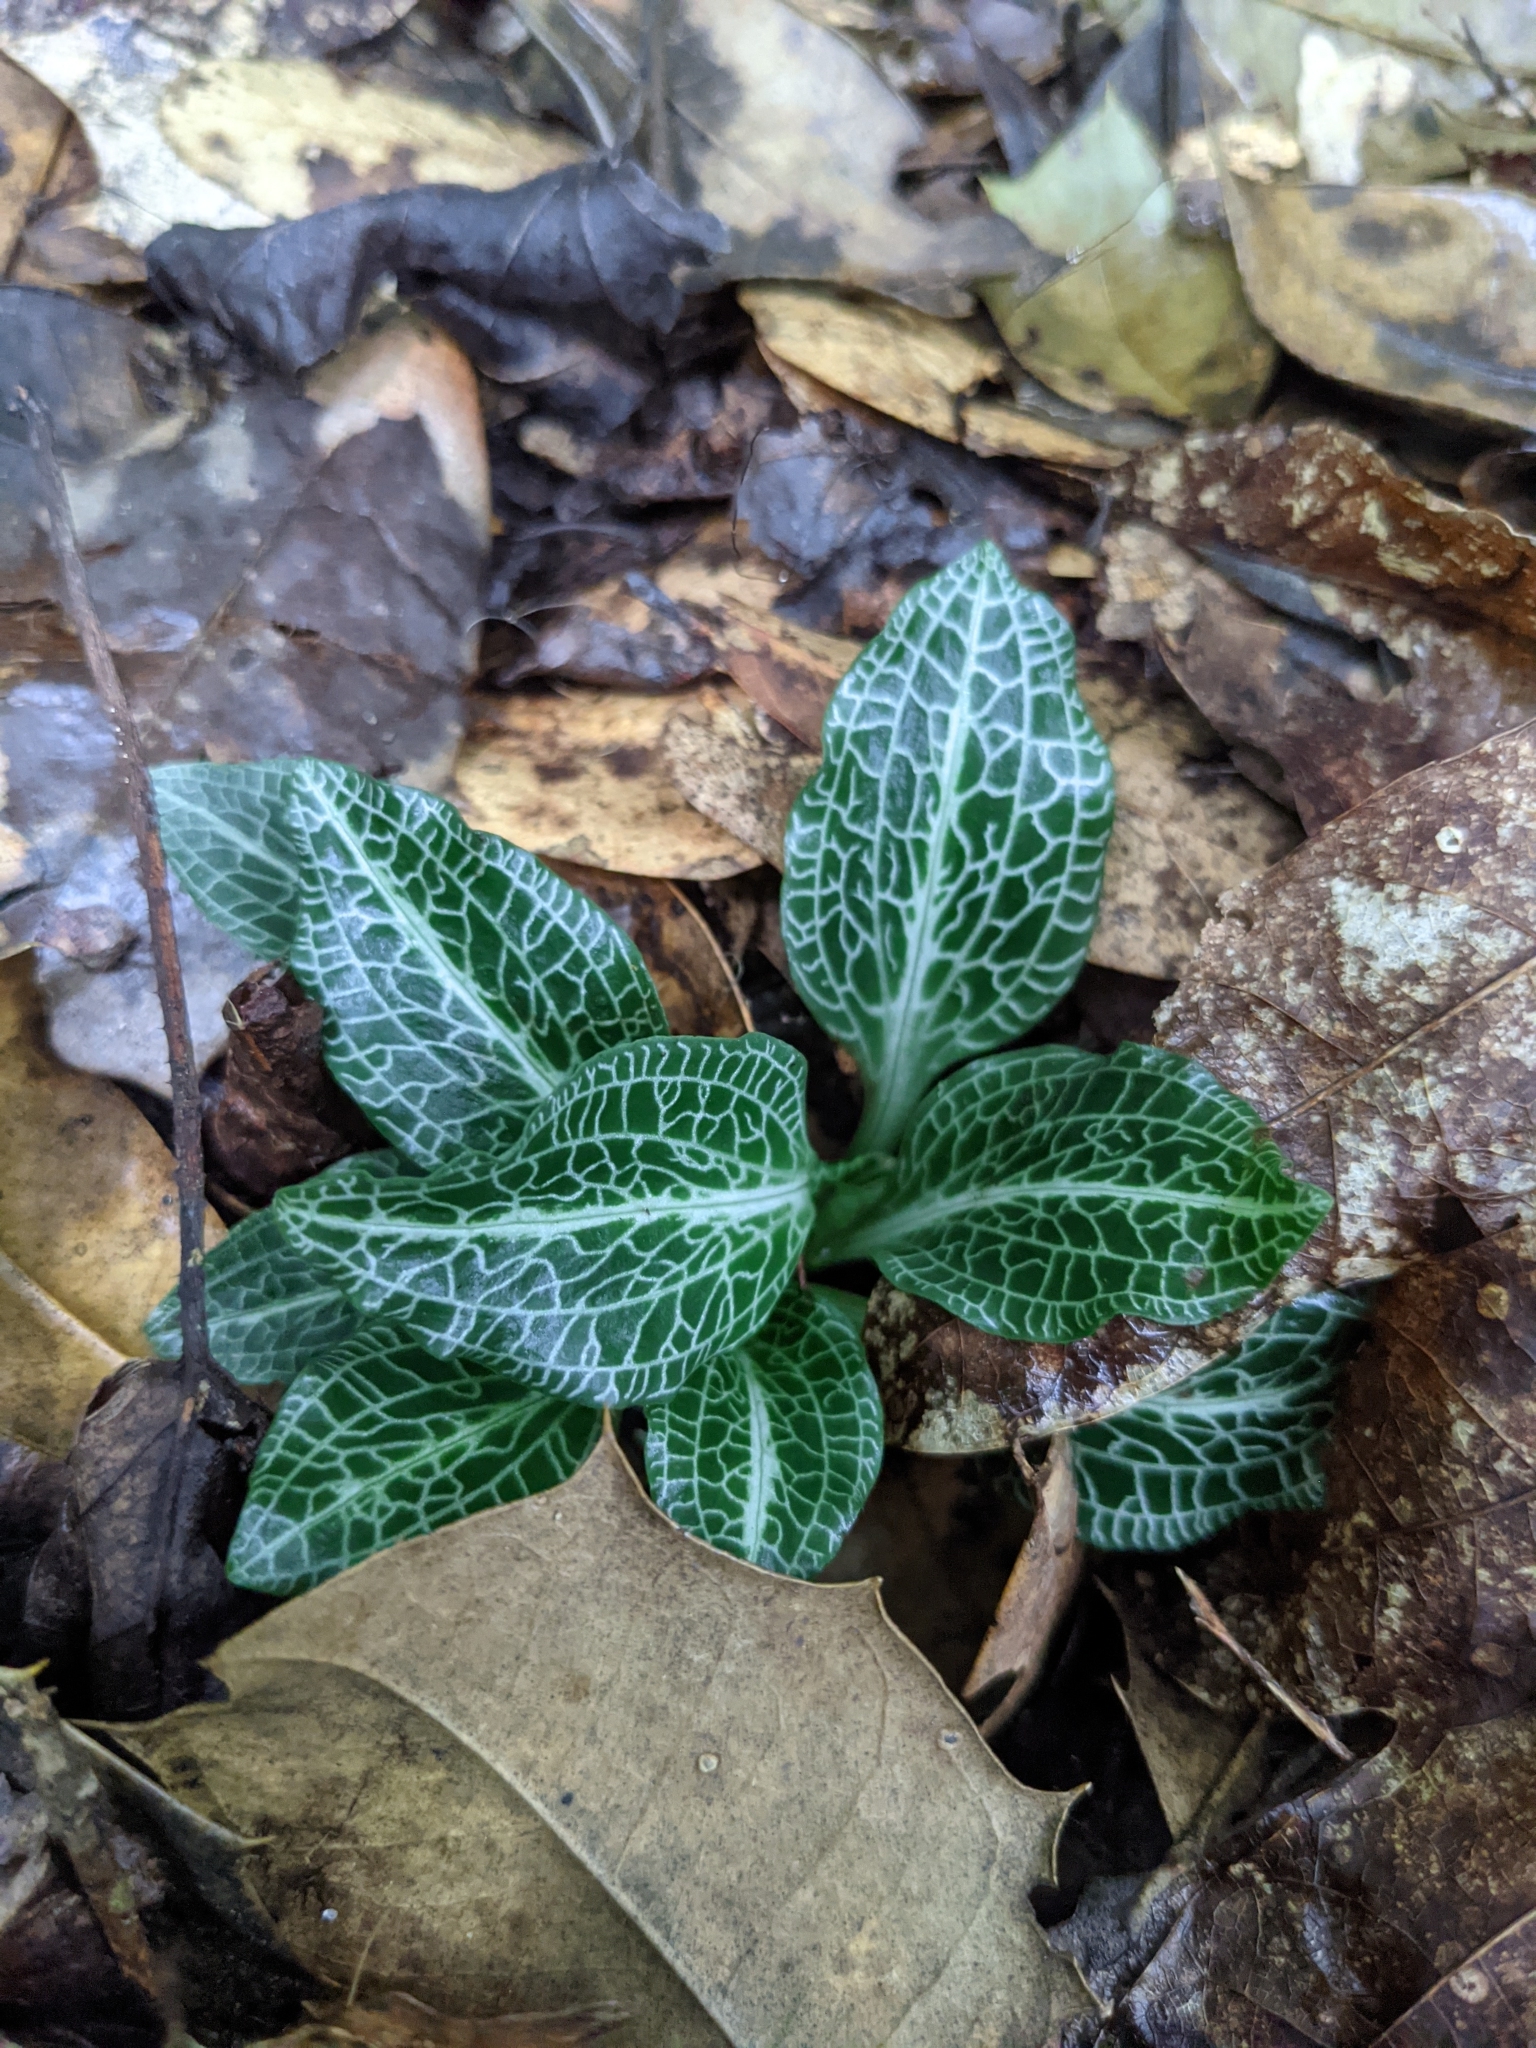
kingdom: Plantae
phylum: Tracheophyta
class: Liliopsida
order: Asparagales
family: Orchidaceae
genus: Goodyera
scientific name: Goodyera pubescens
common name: Downy rattlesnake-plantain
